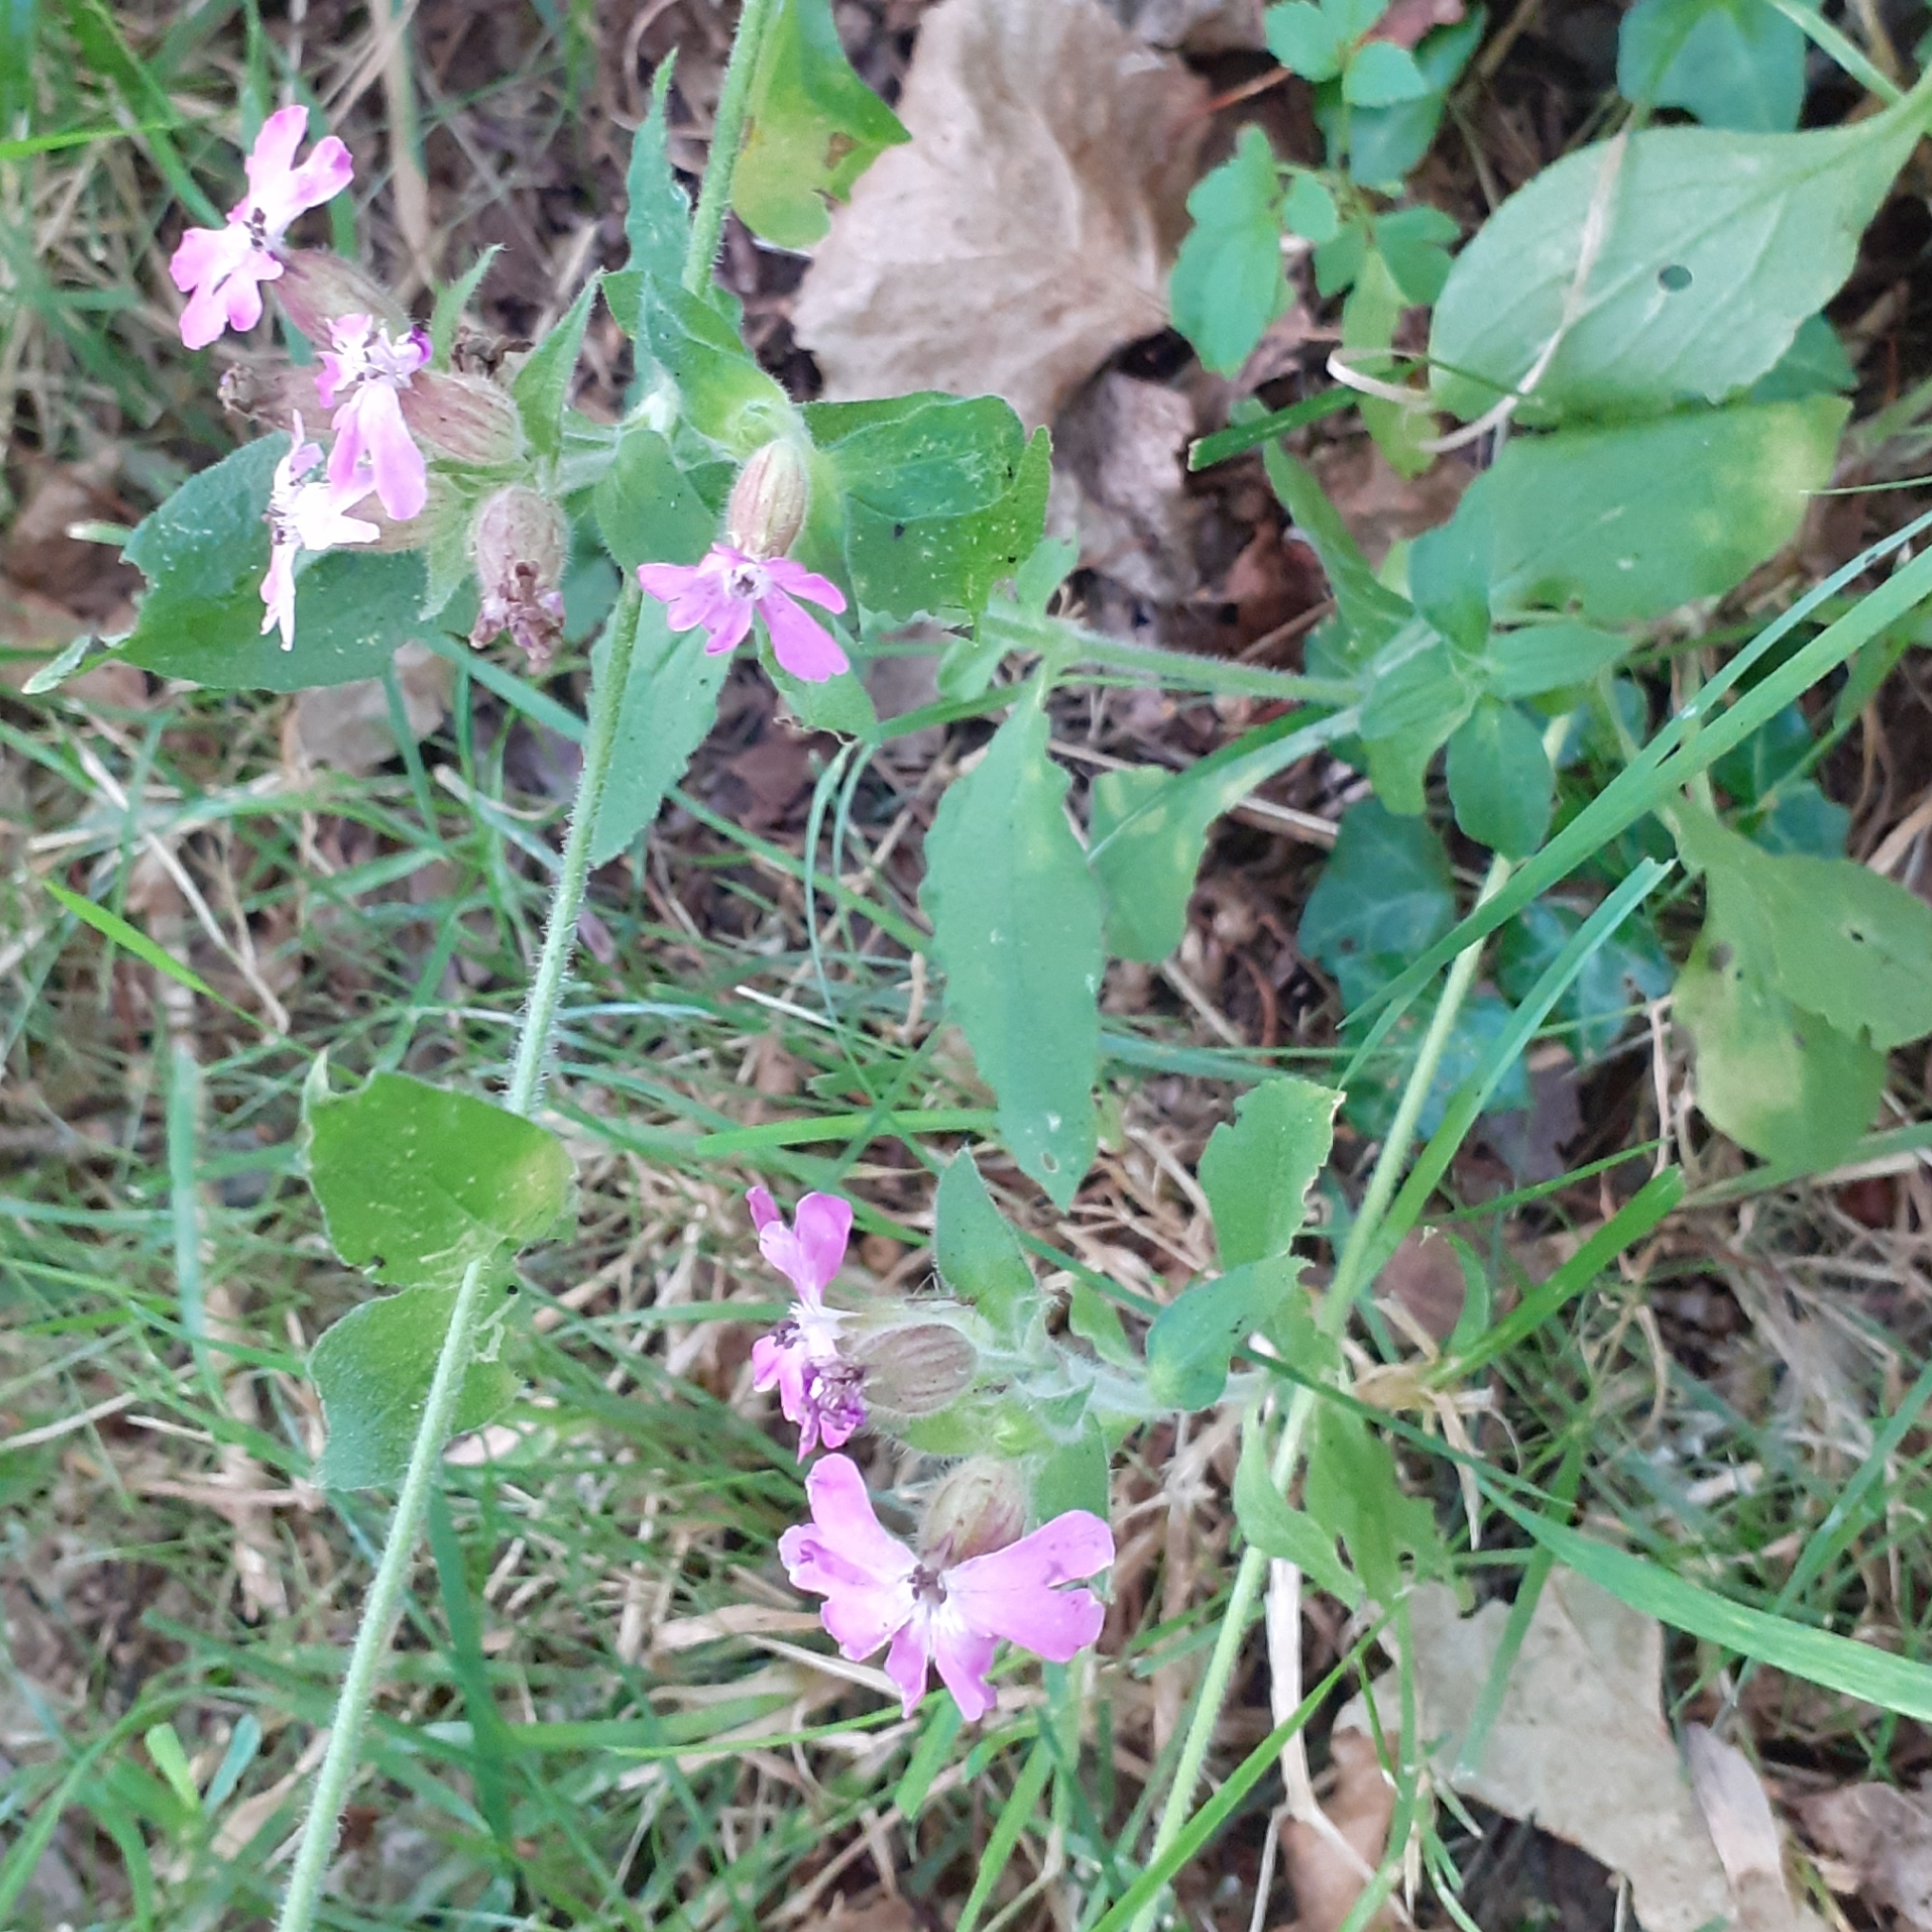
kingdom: Plantae
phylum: Tracheophyta
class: Magnoliopsida
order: Caryophyllales
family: Caryophyllaceae
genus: Silene
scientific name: Silene dioica
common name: Red campion
